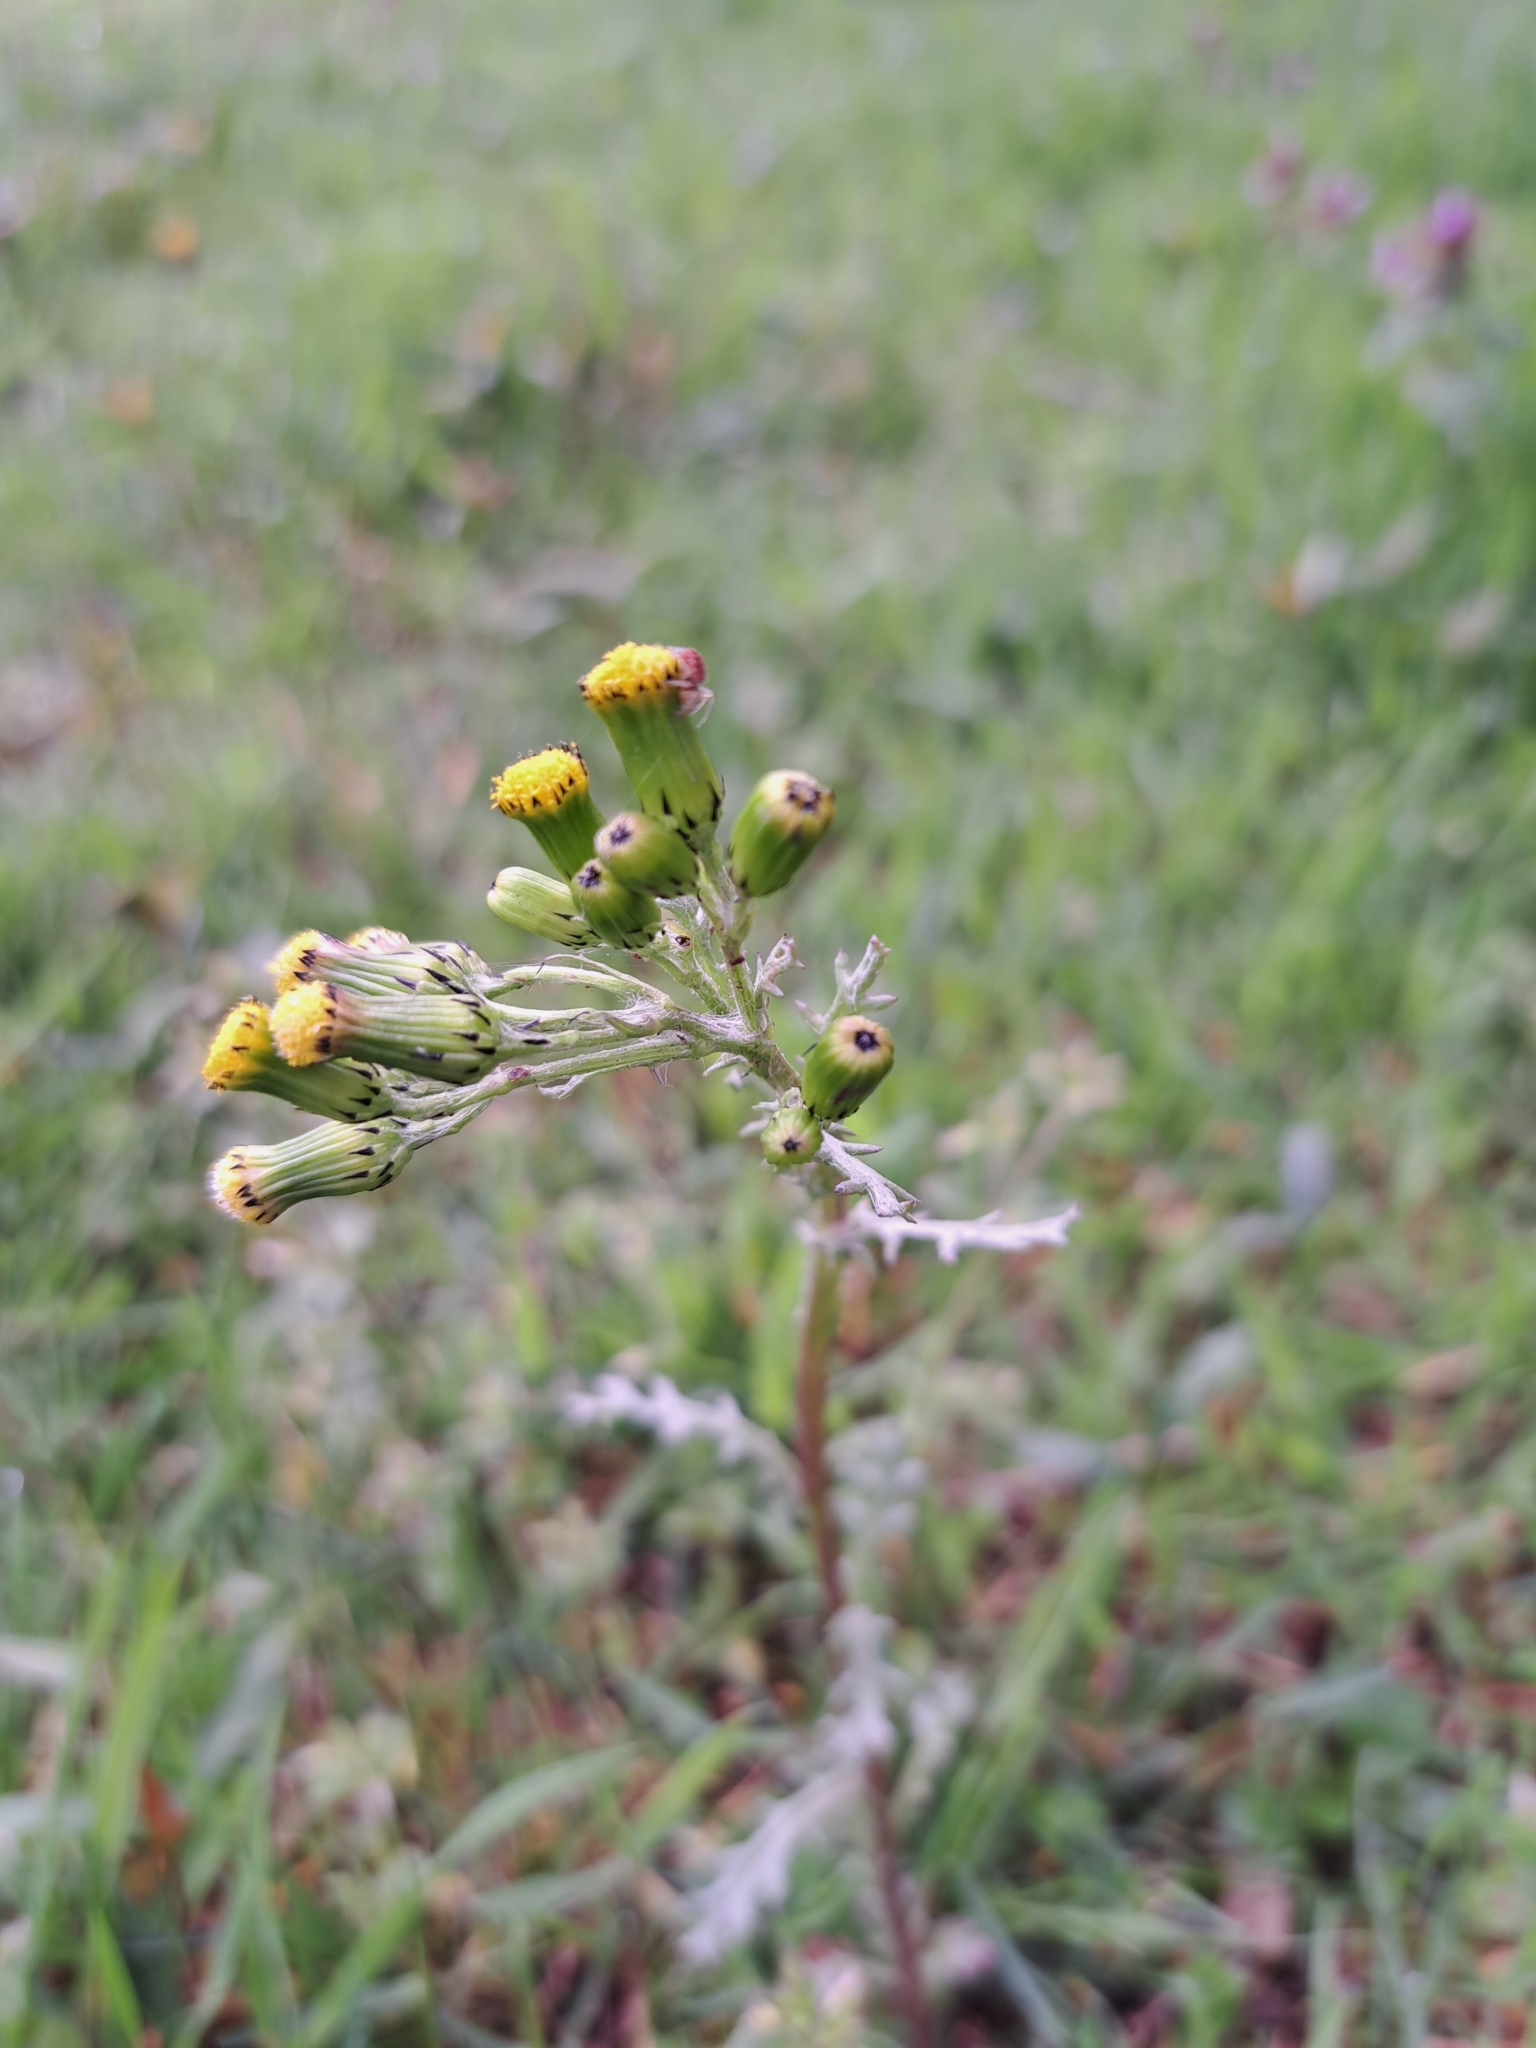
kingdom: Plantae
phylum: Tracheophyta
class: Magnoliopsida
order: Asterales
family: Asteraceae
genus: Senecio
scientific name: Senecio vulgaris
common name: Old-man-in-the-spring
